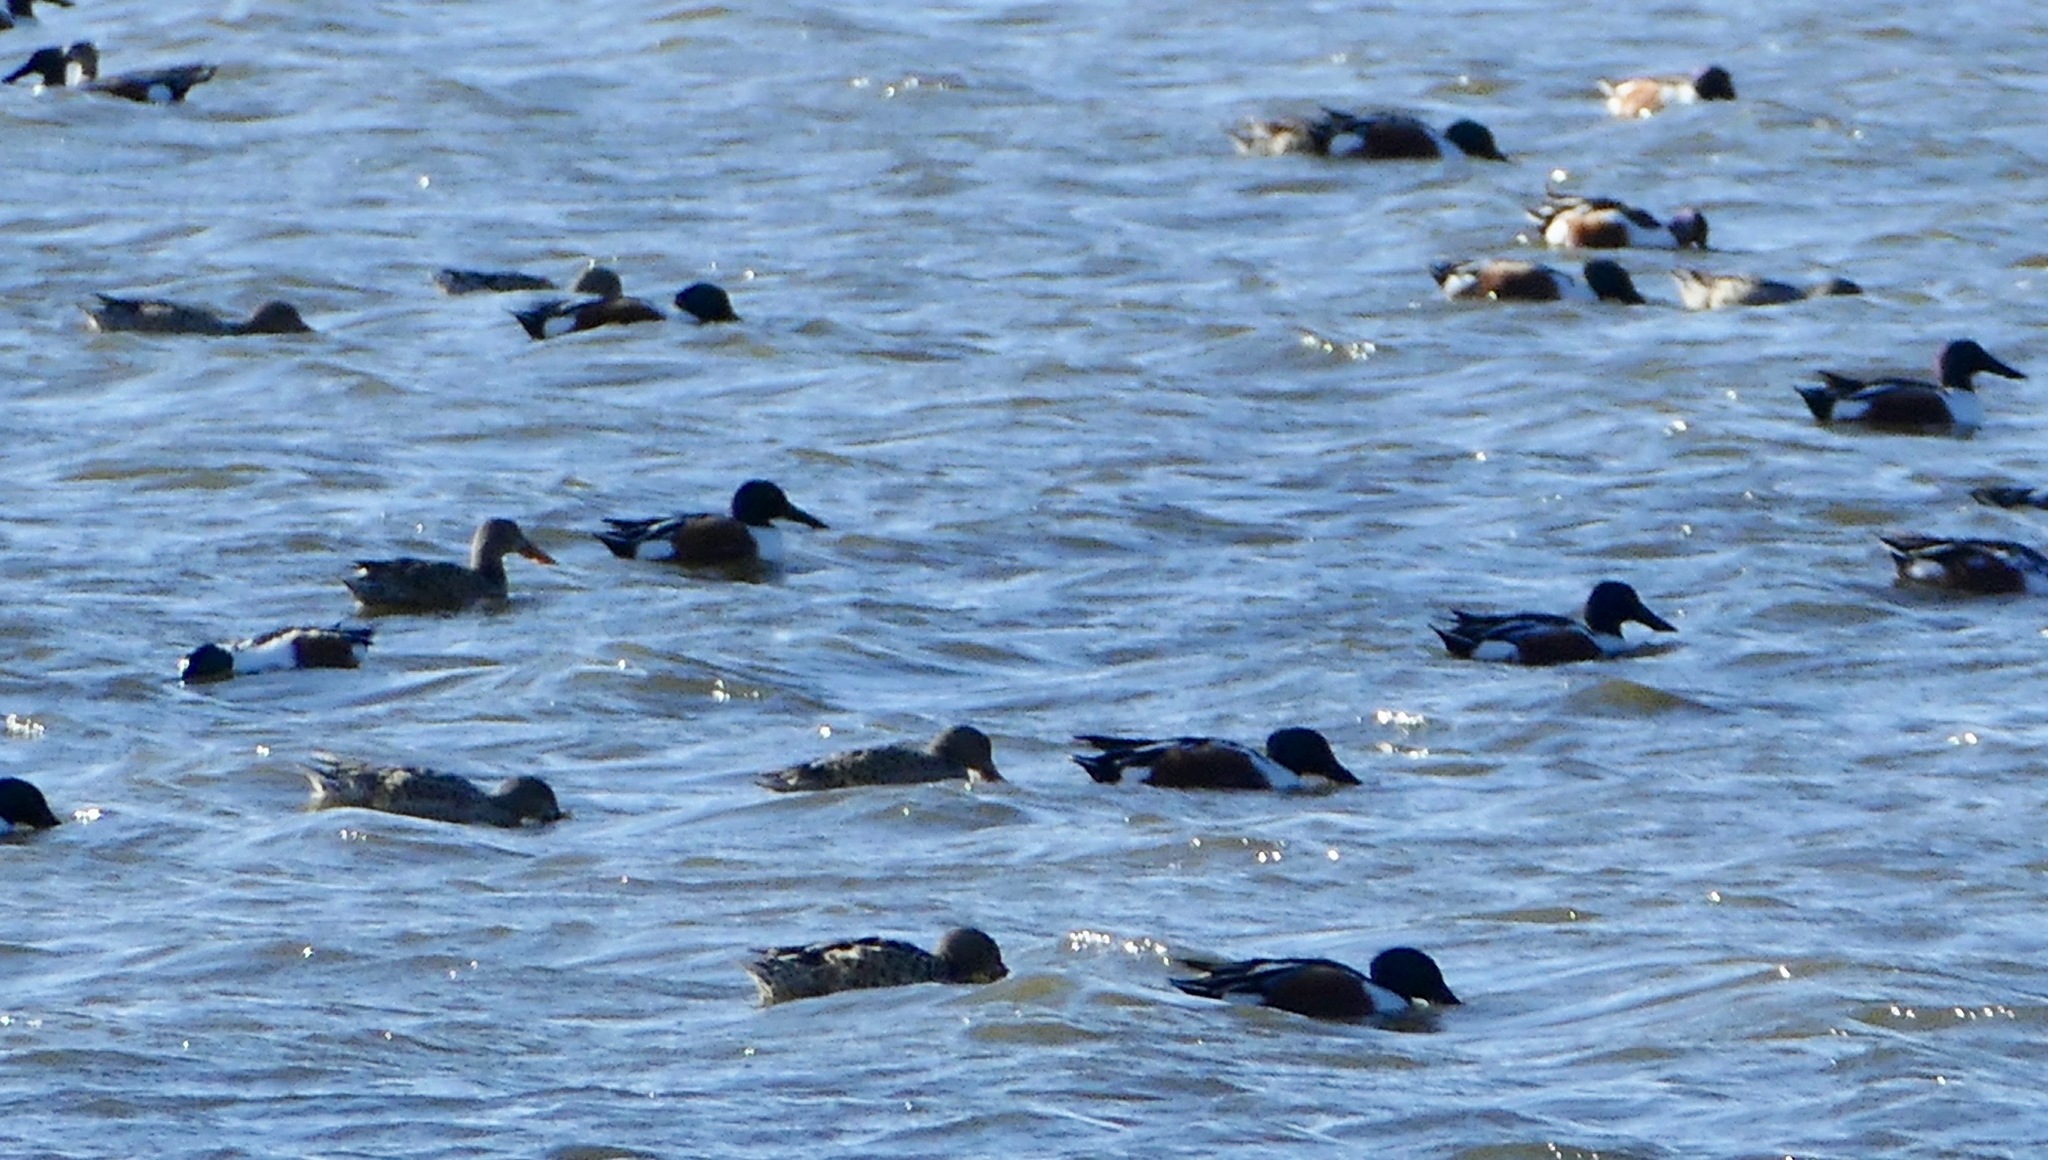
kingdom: Animalia
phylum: Chordata
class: Aves
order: Anseriformes
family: Anatidae
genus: Spatula
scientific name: Spatula clypeata
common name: Northern shoveler
